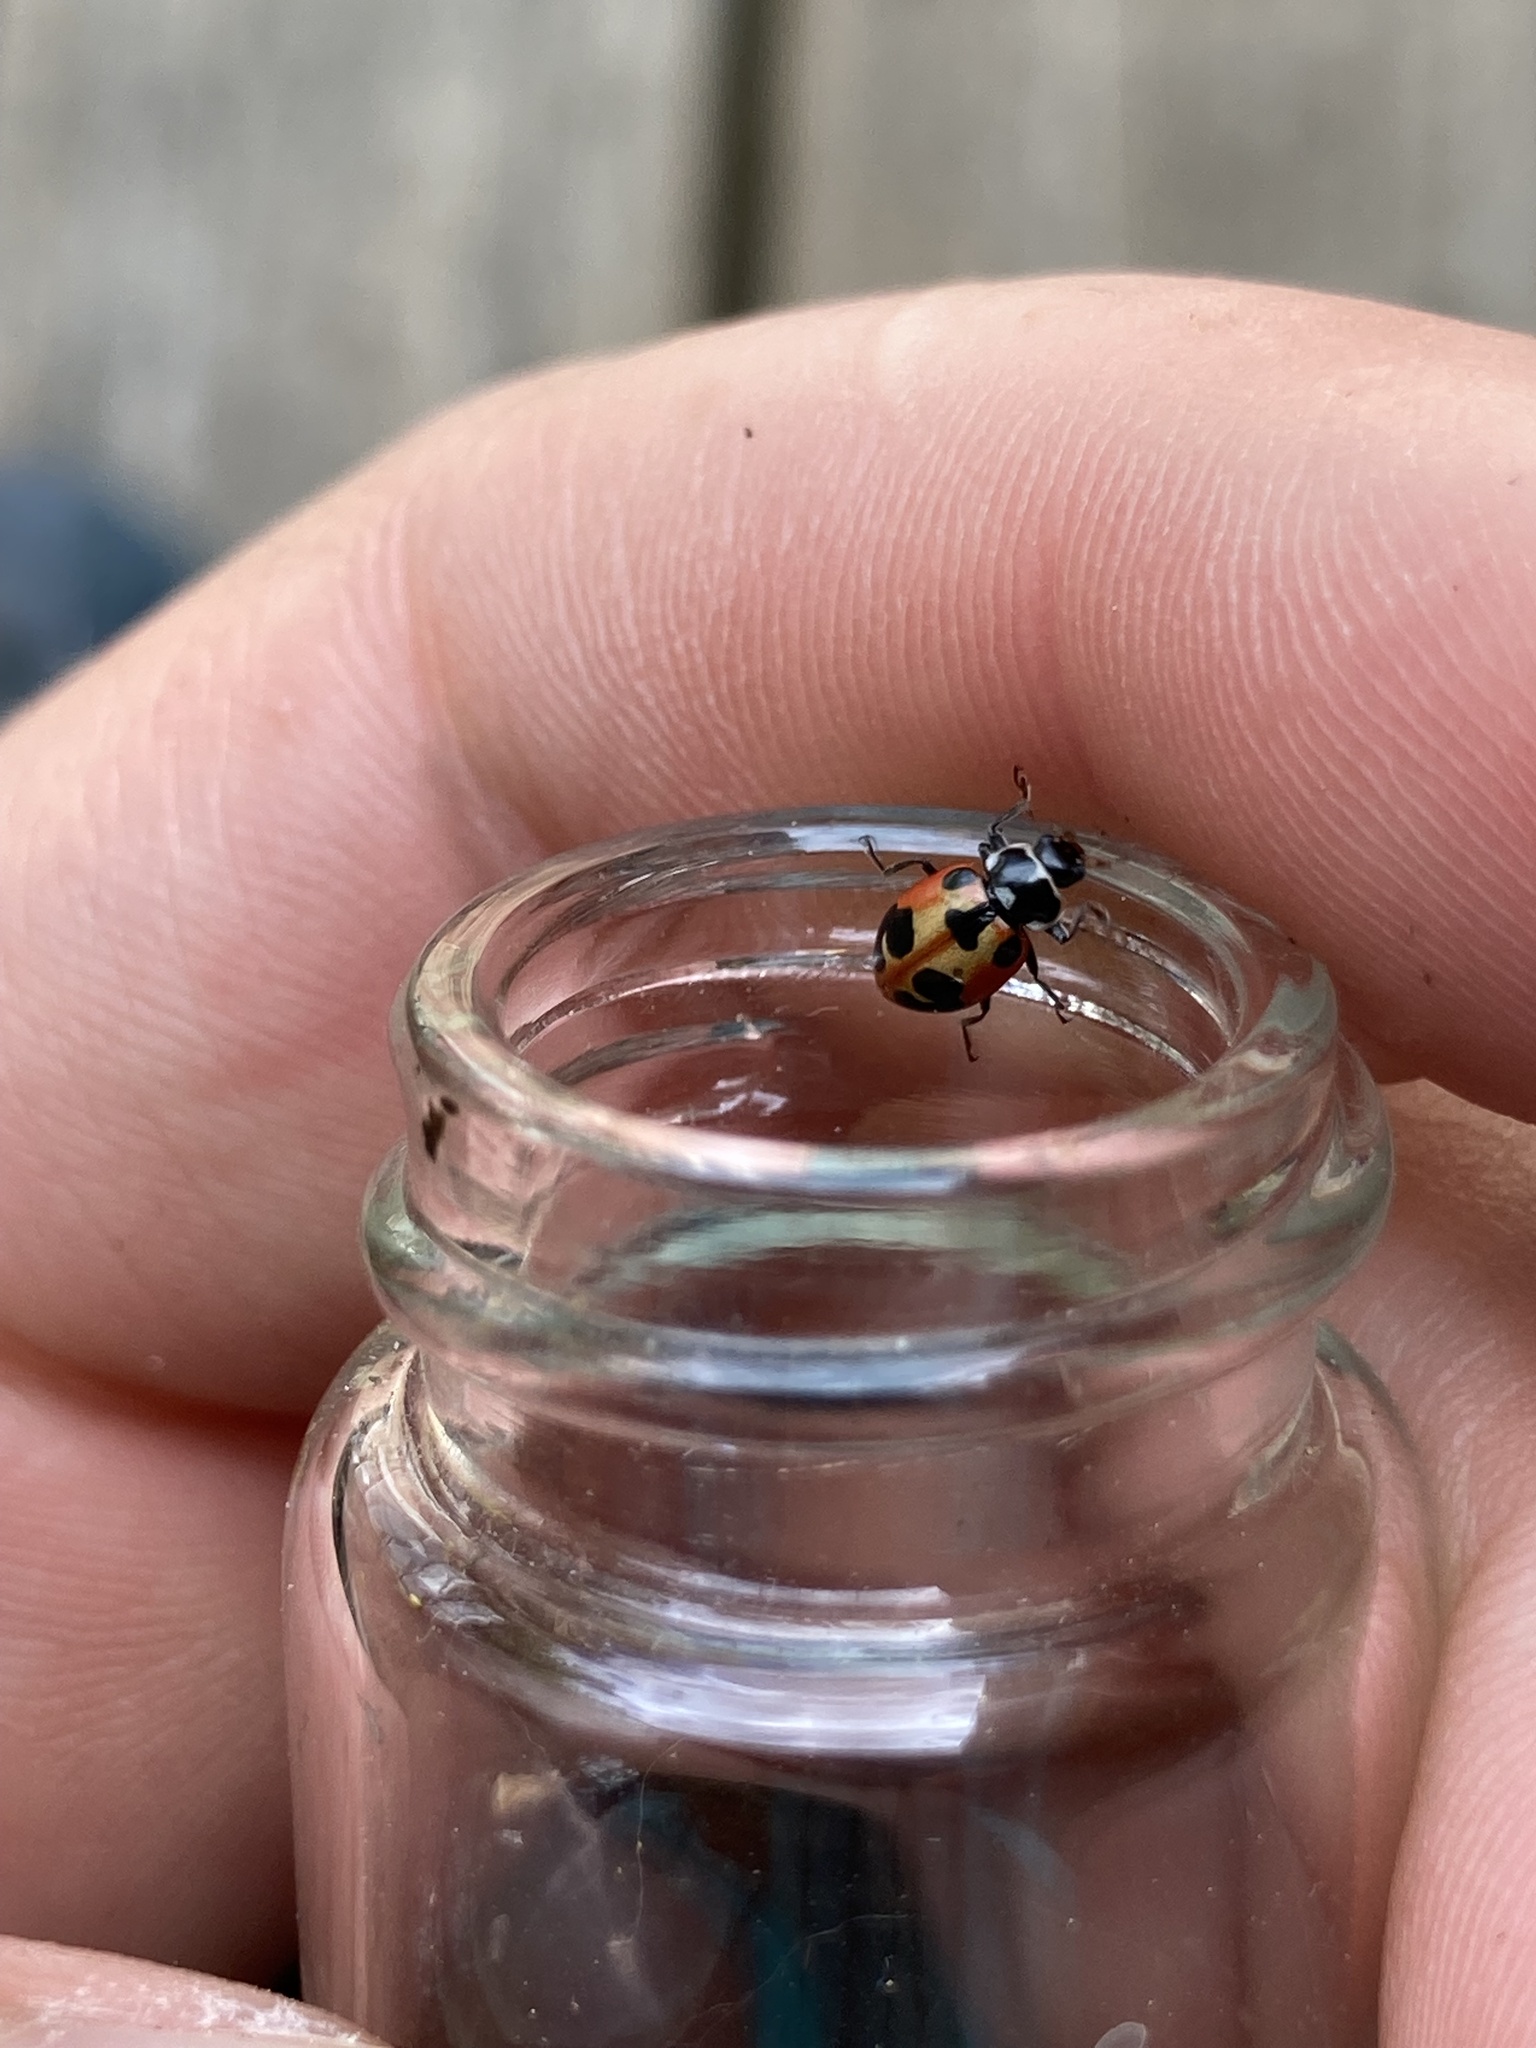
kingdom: Animalia
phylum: Arthropoda
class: Insecta
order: Coleoptera
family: Coccinellidae
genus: Hippodamia
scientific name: Hippodamia parenthesis
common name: Parenthesis lady beetle
